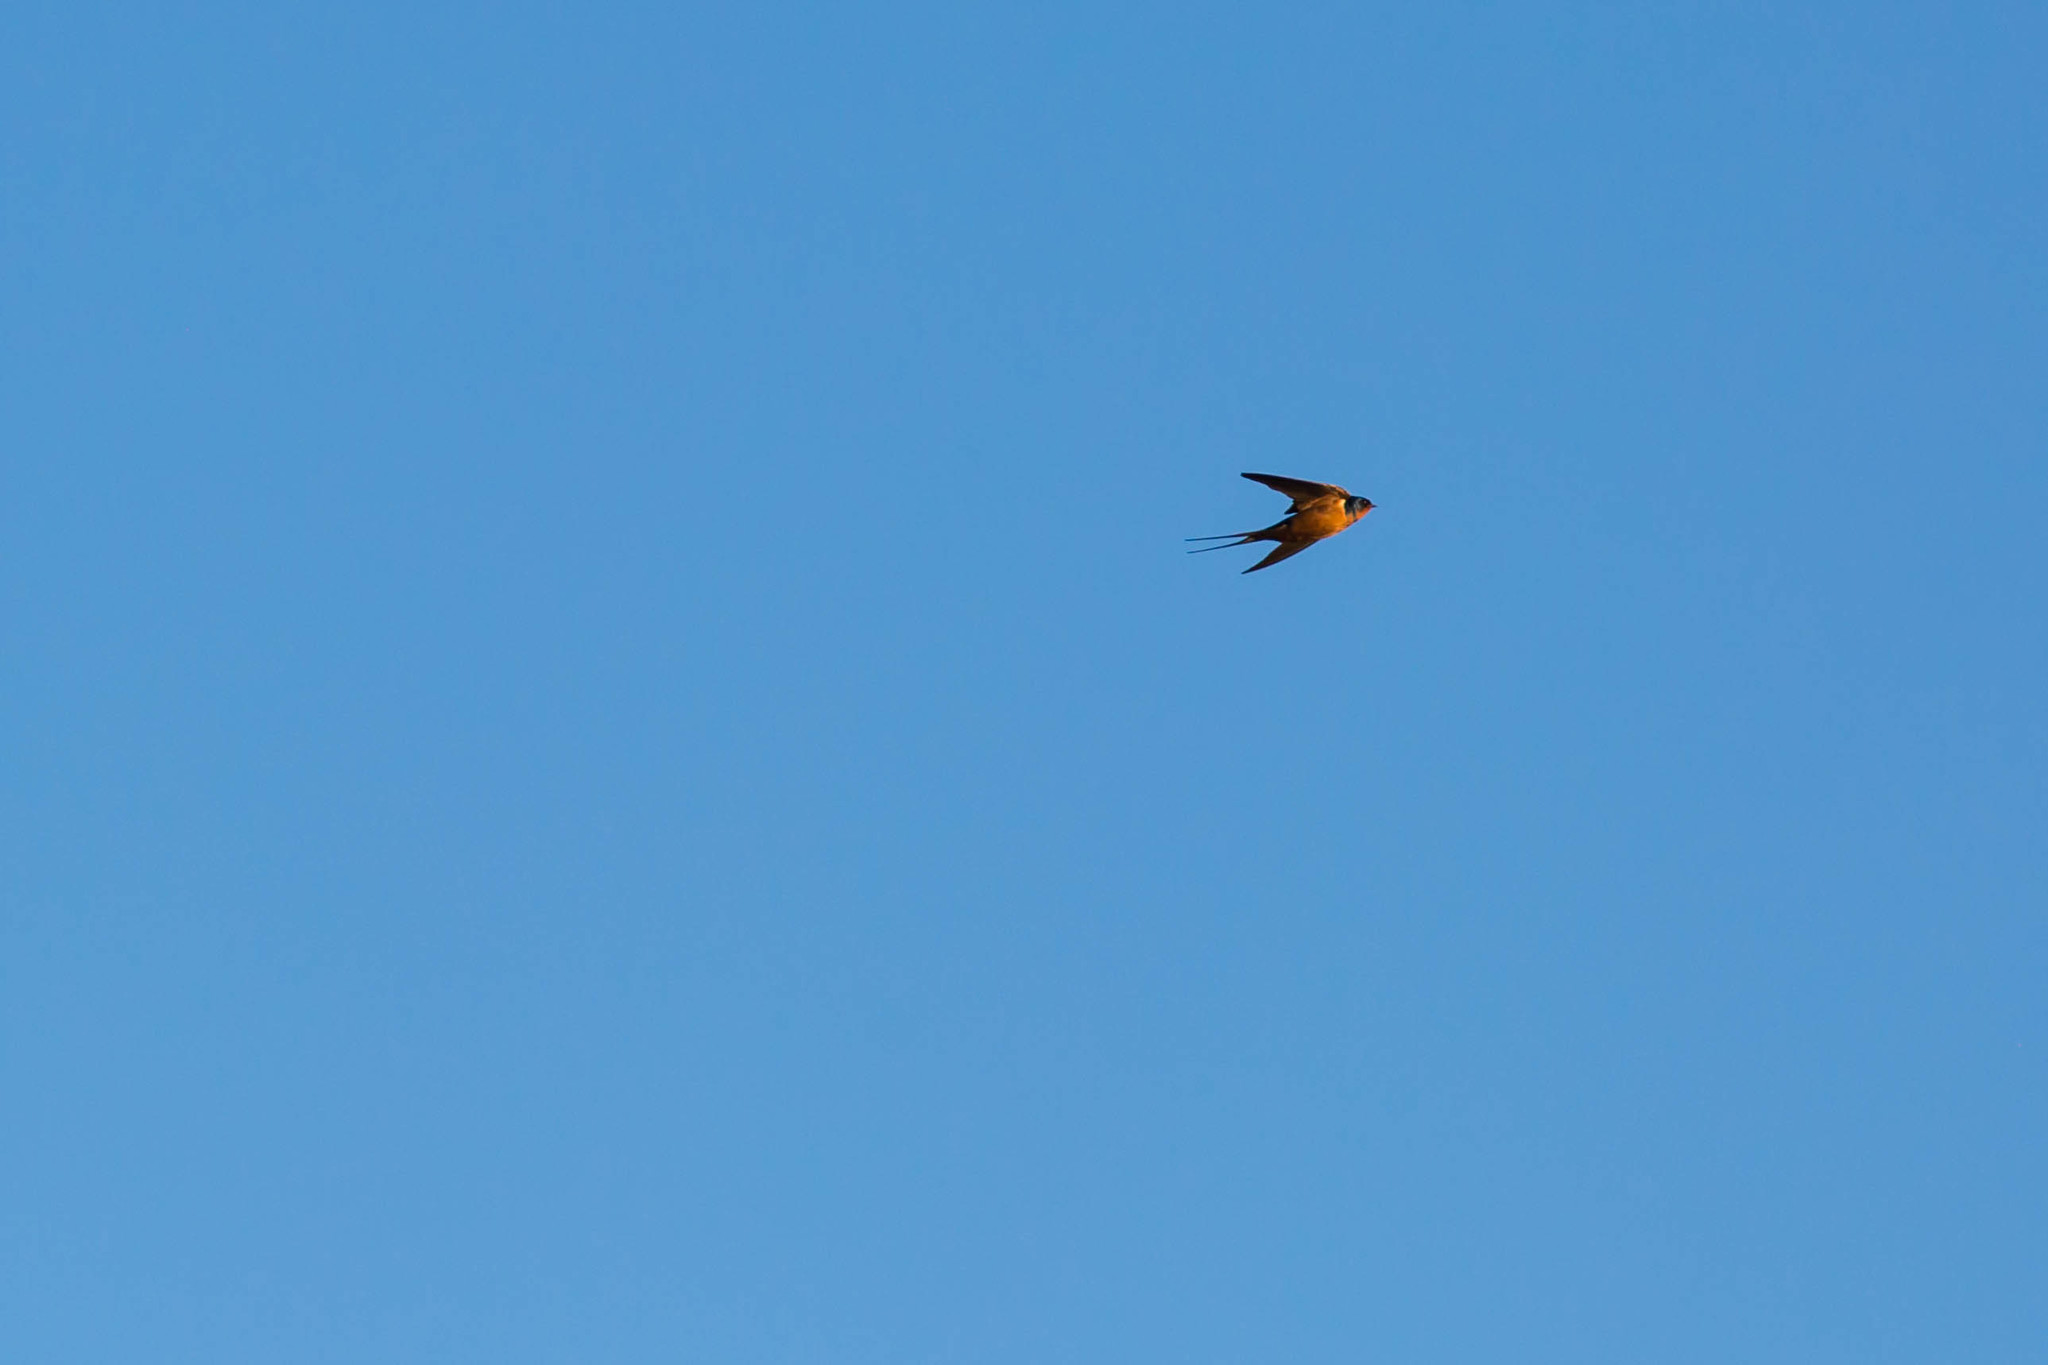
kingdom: Animalia
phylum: Chordata
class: Aves
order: Passeriformes
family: Hirundinidae
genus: Hirundo
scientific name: Hirundo rustica
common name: Barn swallow
